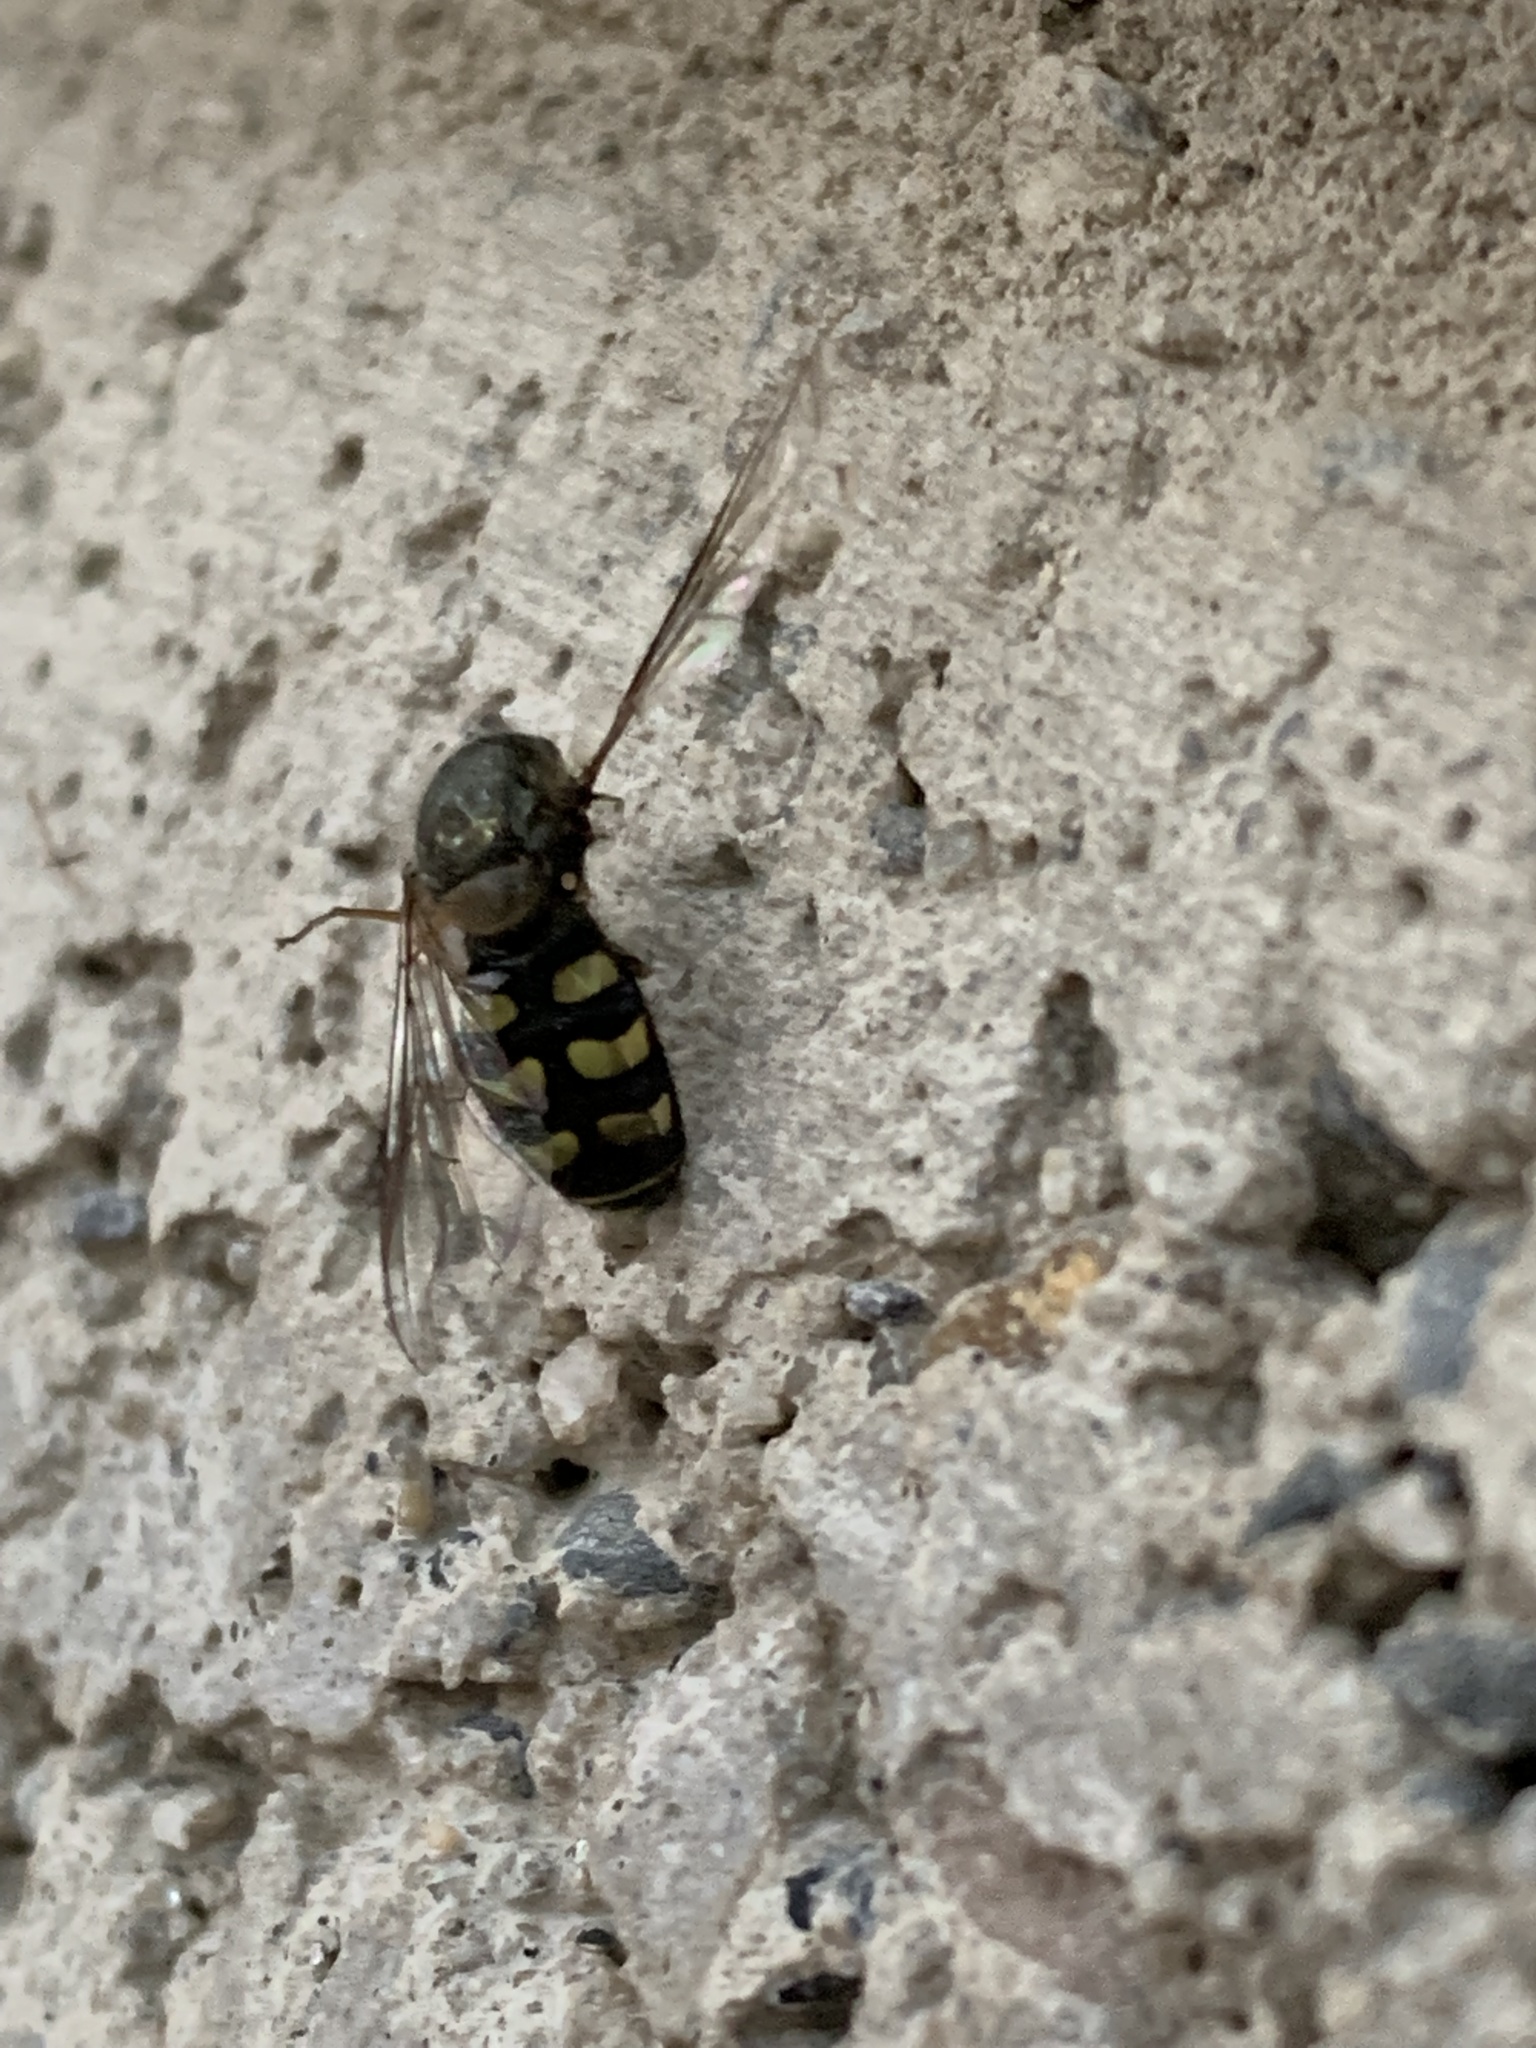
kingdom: Animalia
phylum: Arthropoda
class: Insecta
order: Diptera
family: Syrphidae
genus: Lapposyrphus
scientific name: Lapposyrphus lapponicus
